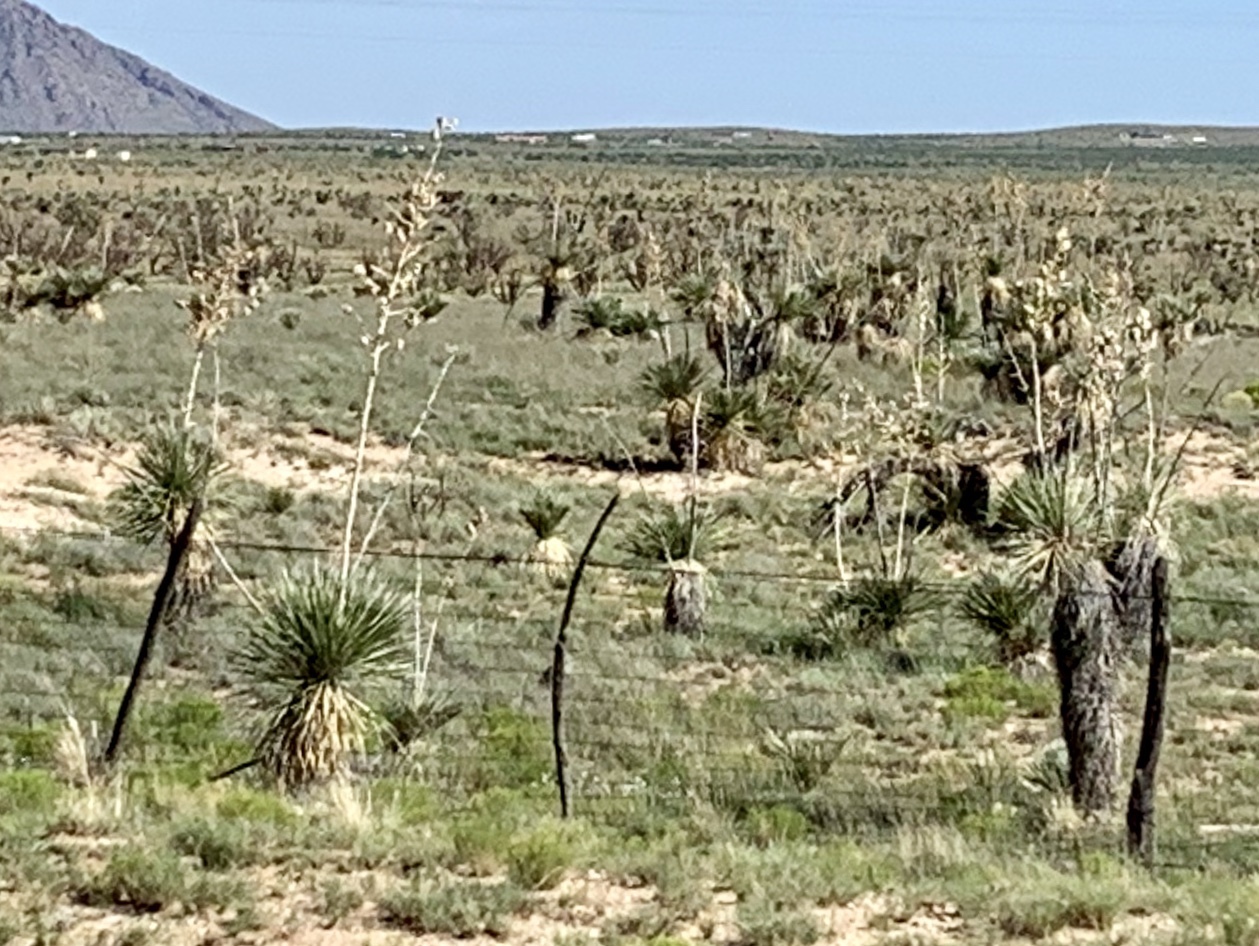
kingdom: Plantae
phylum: Tracheophyta
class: Liliopsida
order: Asparagales
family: Asparagaceae
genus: Yucca
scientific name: Yucca elata
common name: Palmella
